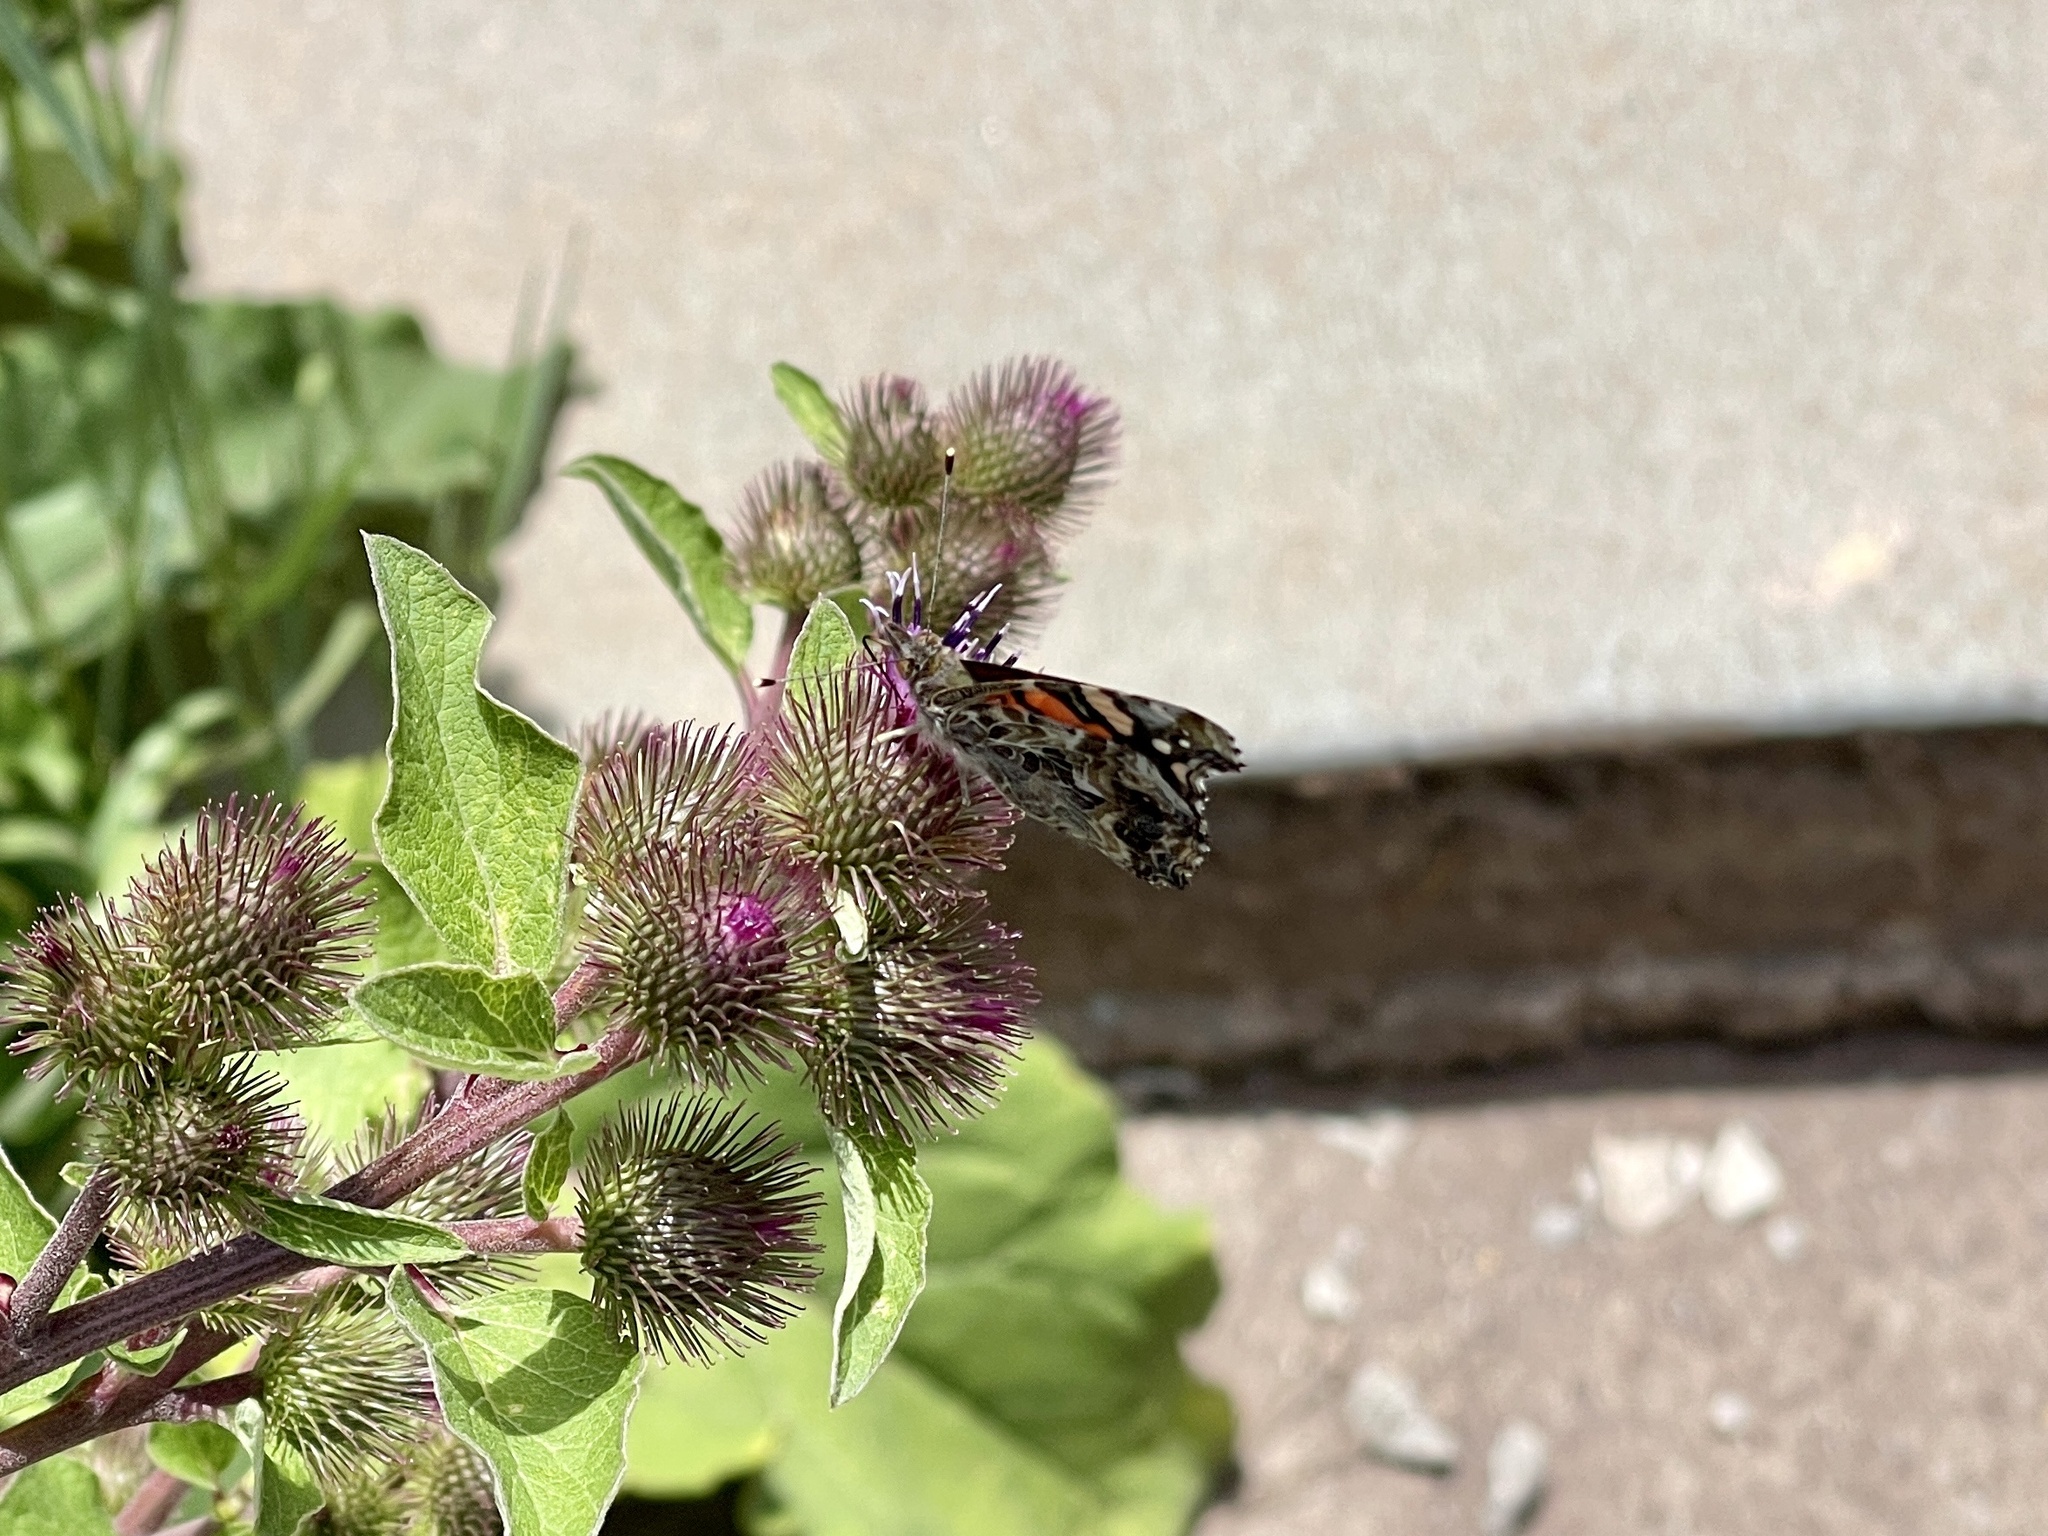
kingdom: Animalia
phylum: Arthropoda
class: Insecta
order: Lepidoptera
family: Nymphalidae
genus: Vanessa
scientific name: Vanessa annabella
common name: West coast lady
